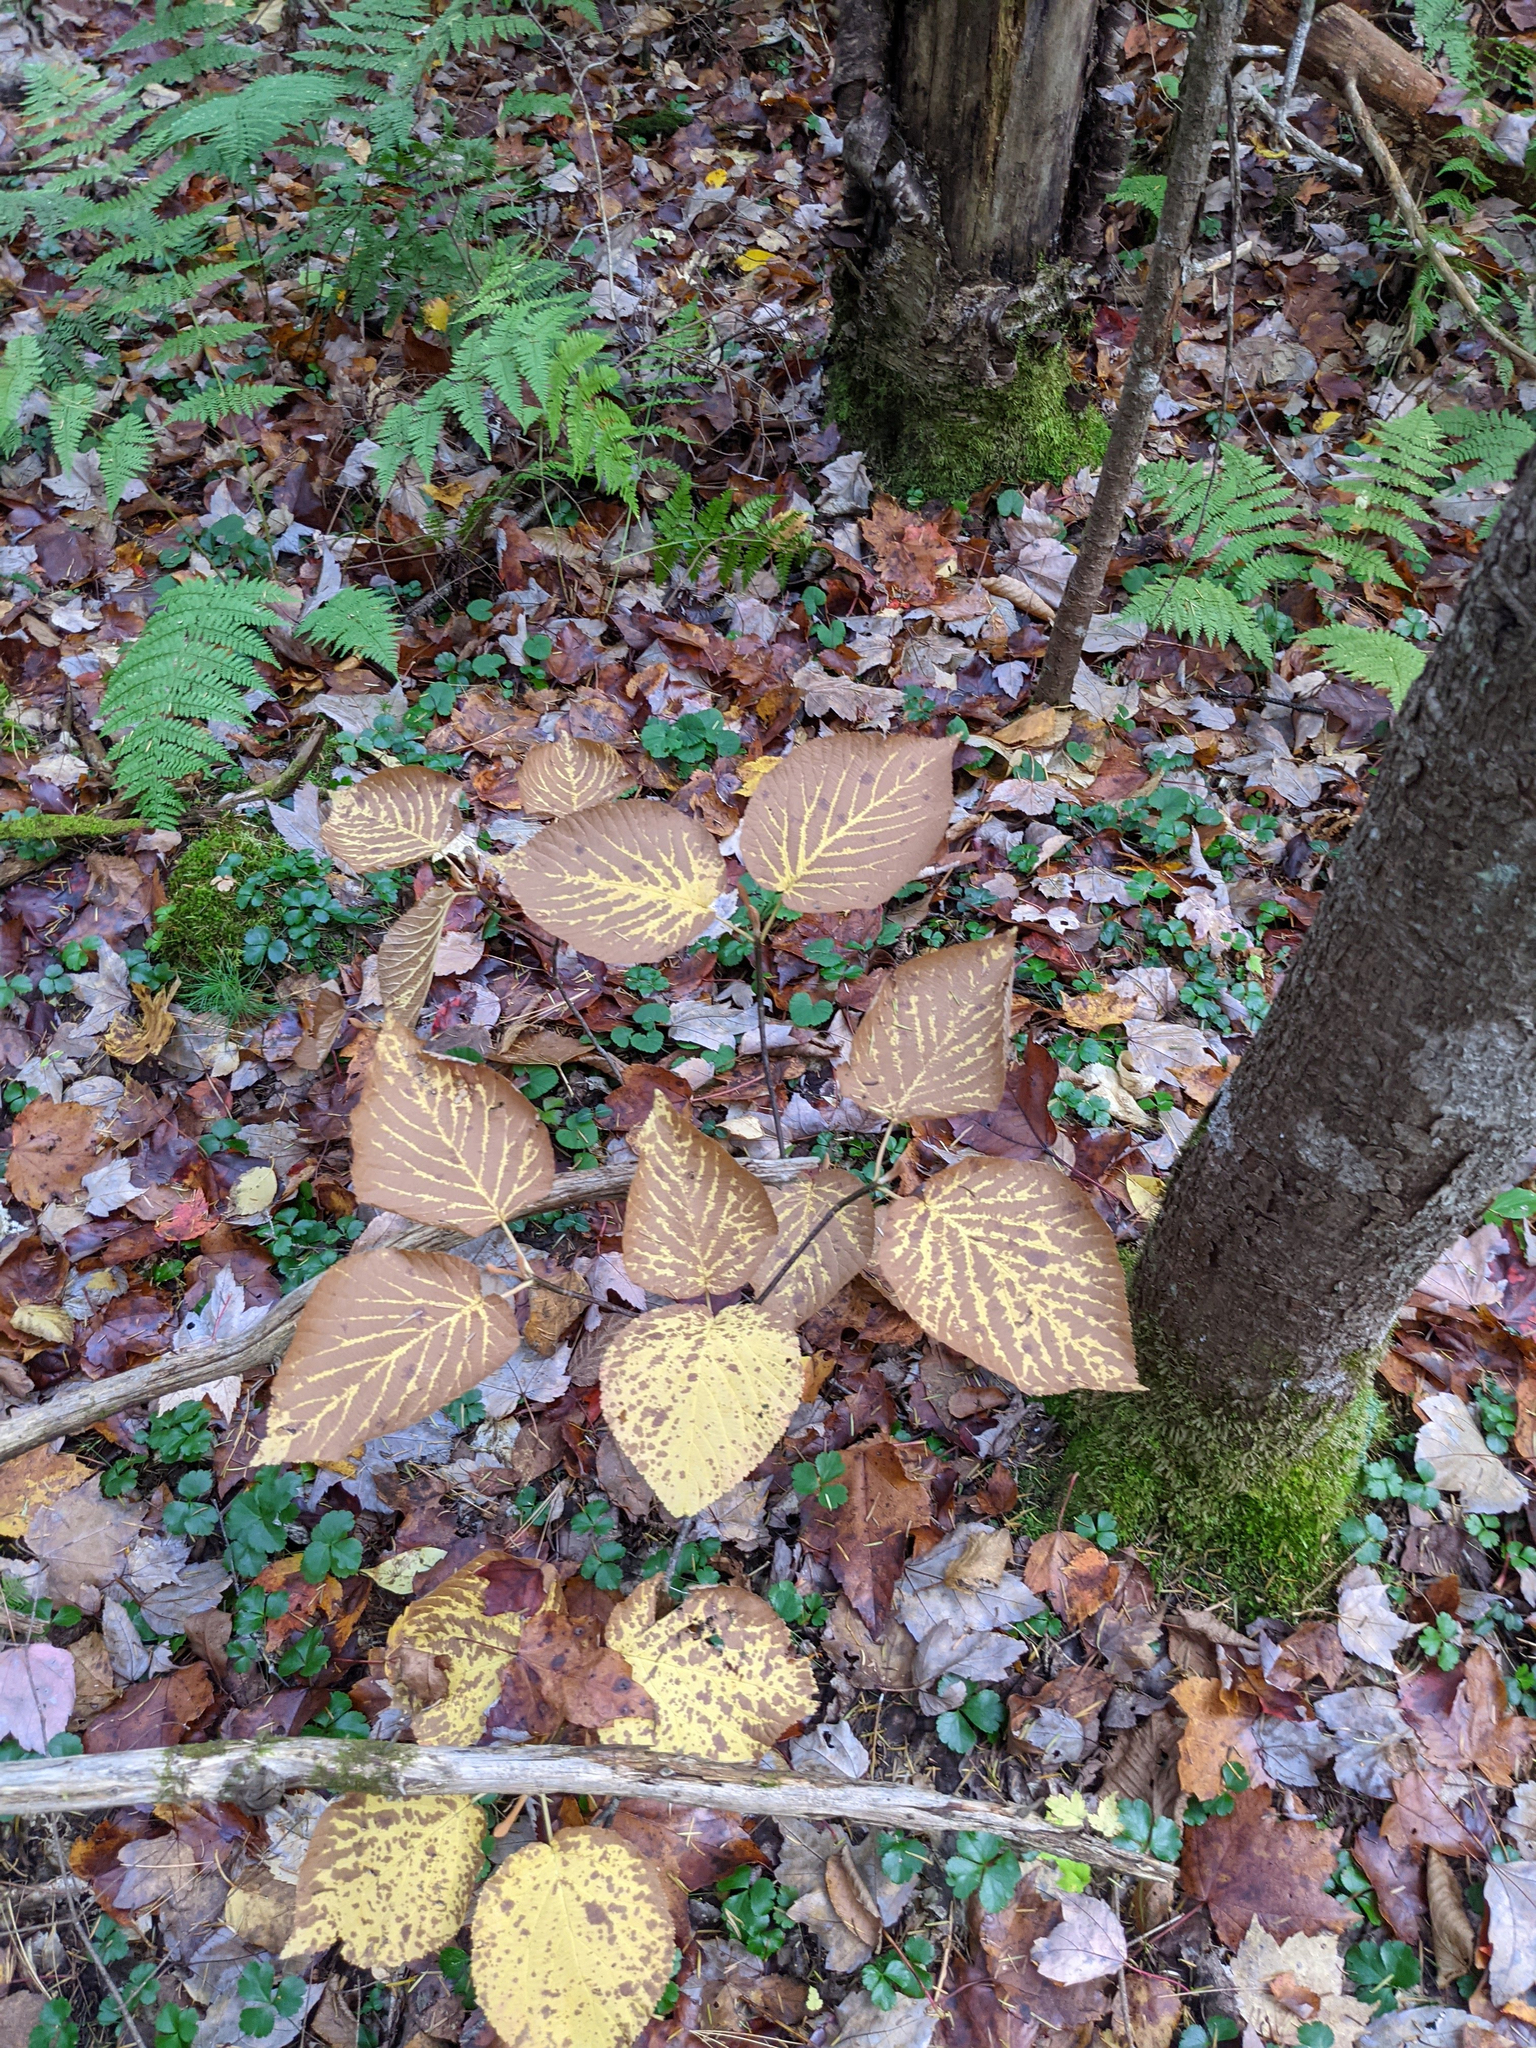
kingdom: Plantae
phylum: Tracheophyta
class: Magnoliopsida
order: Dipsacales
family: Viburnaceae
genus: Viburnum
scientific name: Viburnum lantanoides
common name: Hobblebush
